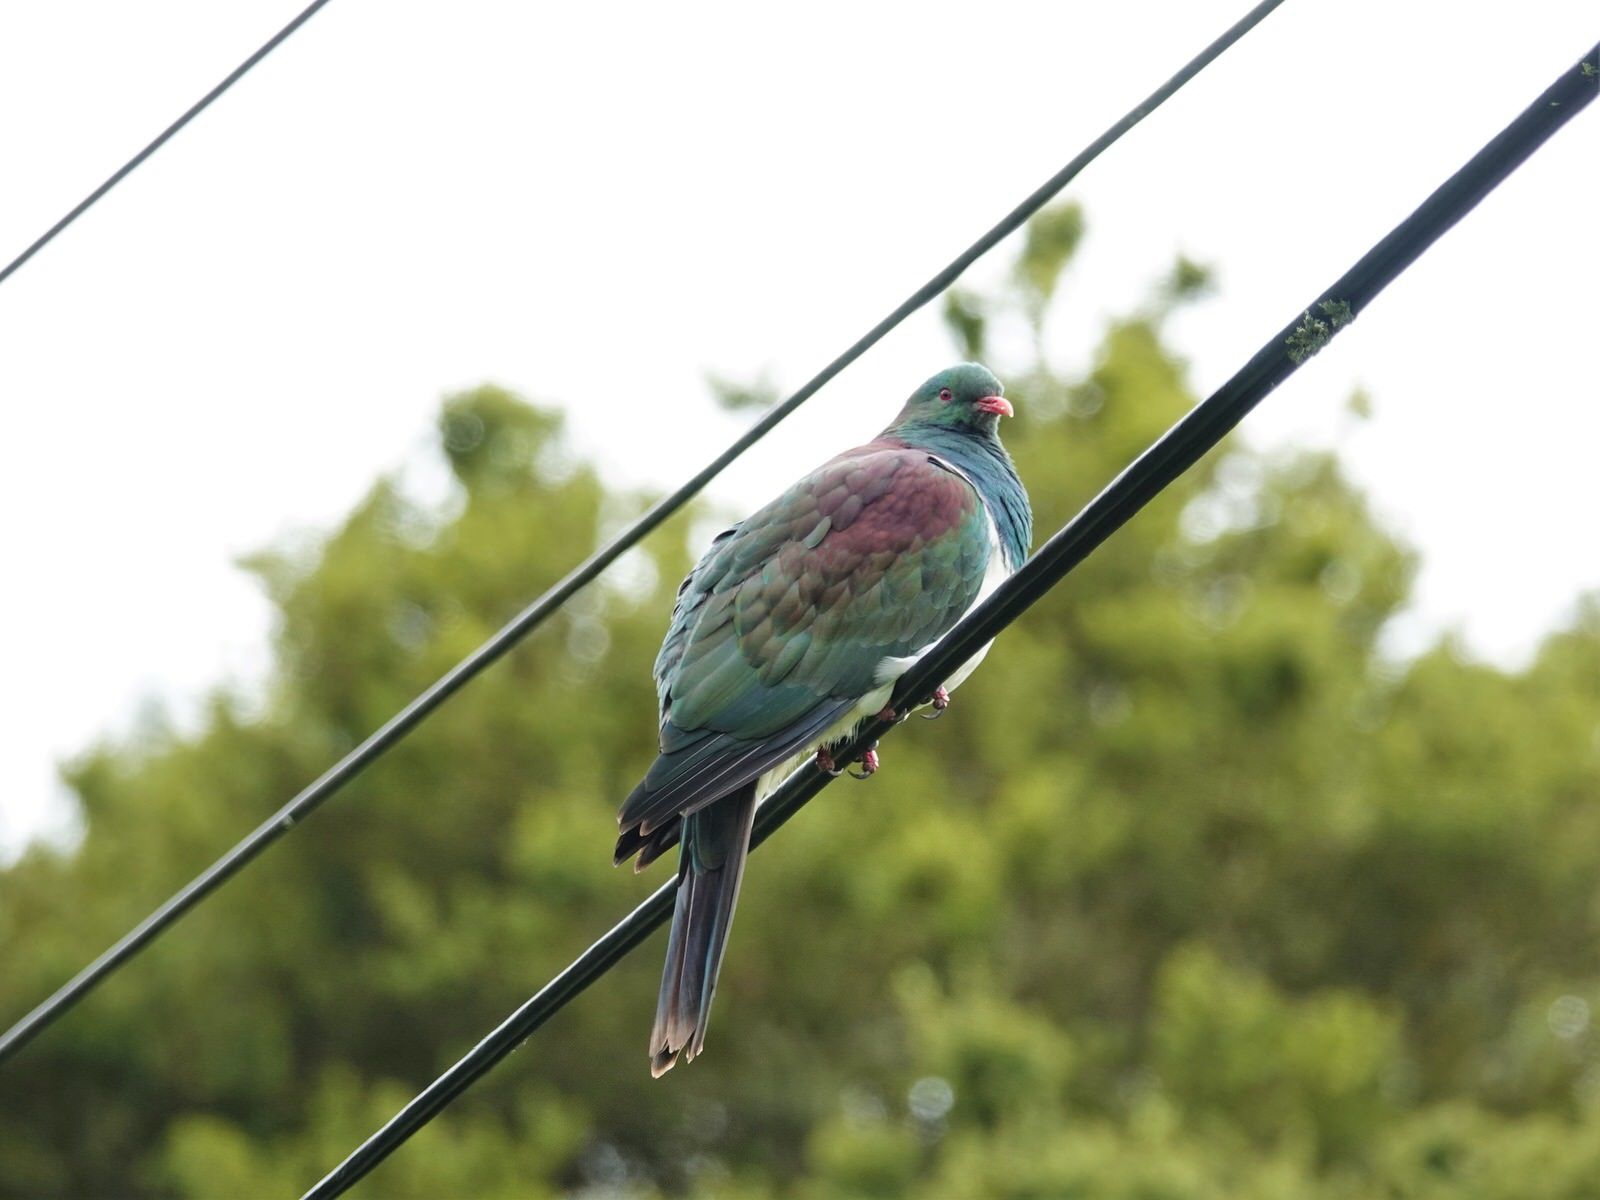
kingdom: Animalia
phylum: Chordata
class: Aves
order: Columbiformes
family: Columbidae
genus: Hemiphaga
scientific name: Hemiphaga novaeseelandiae
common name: New zealand pigeon
